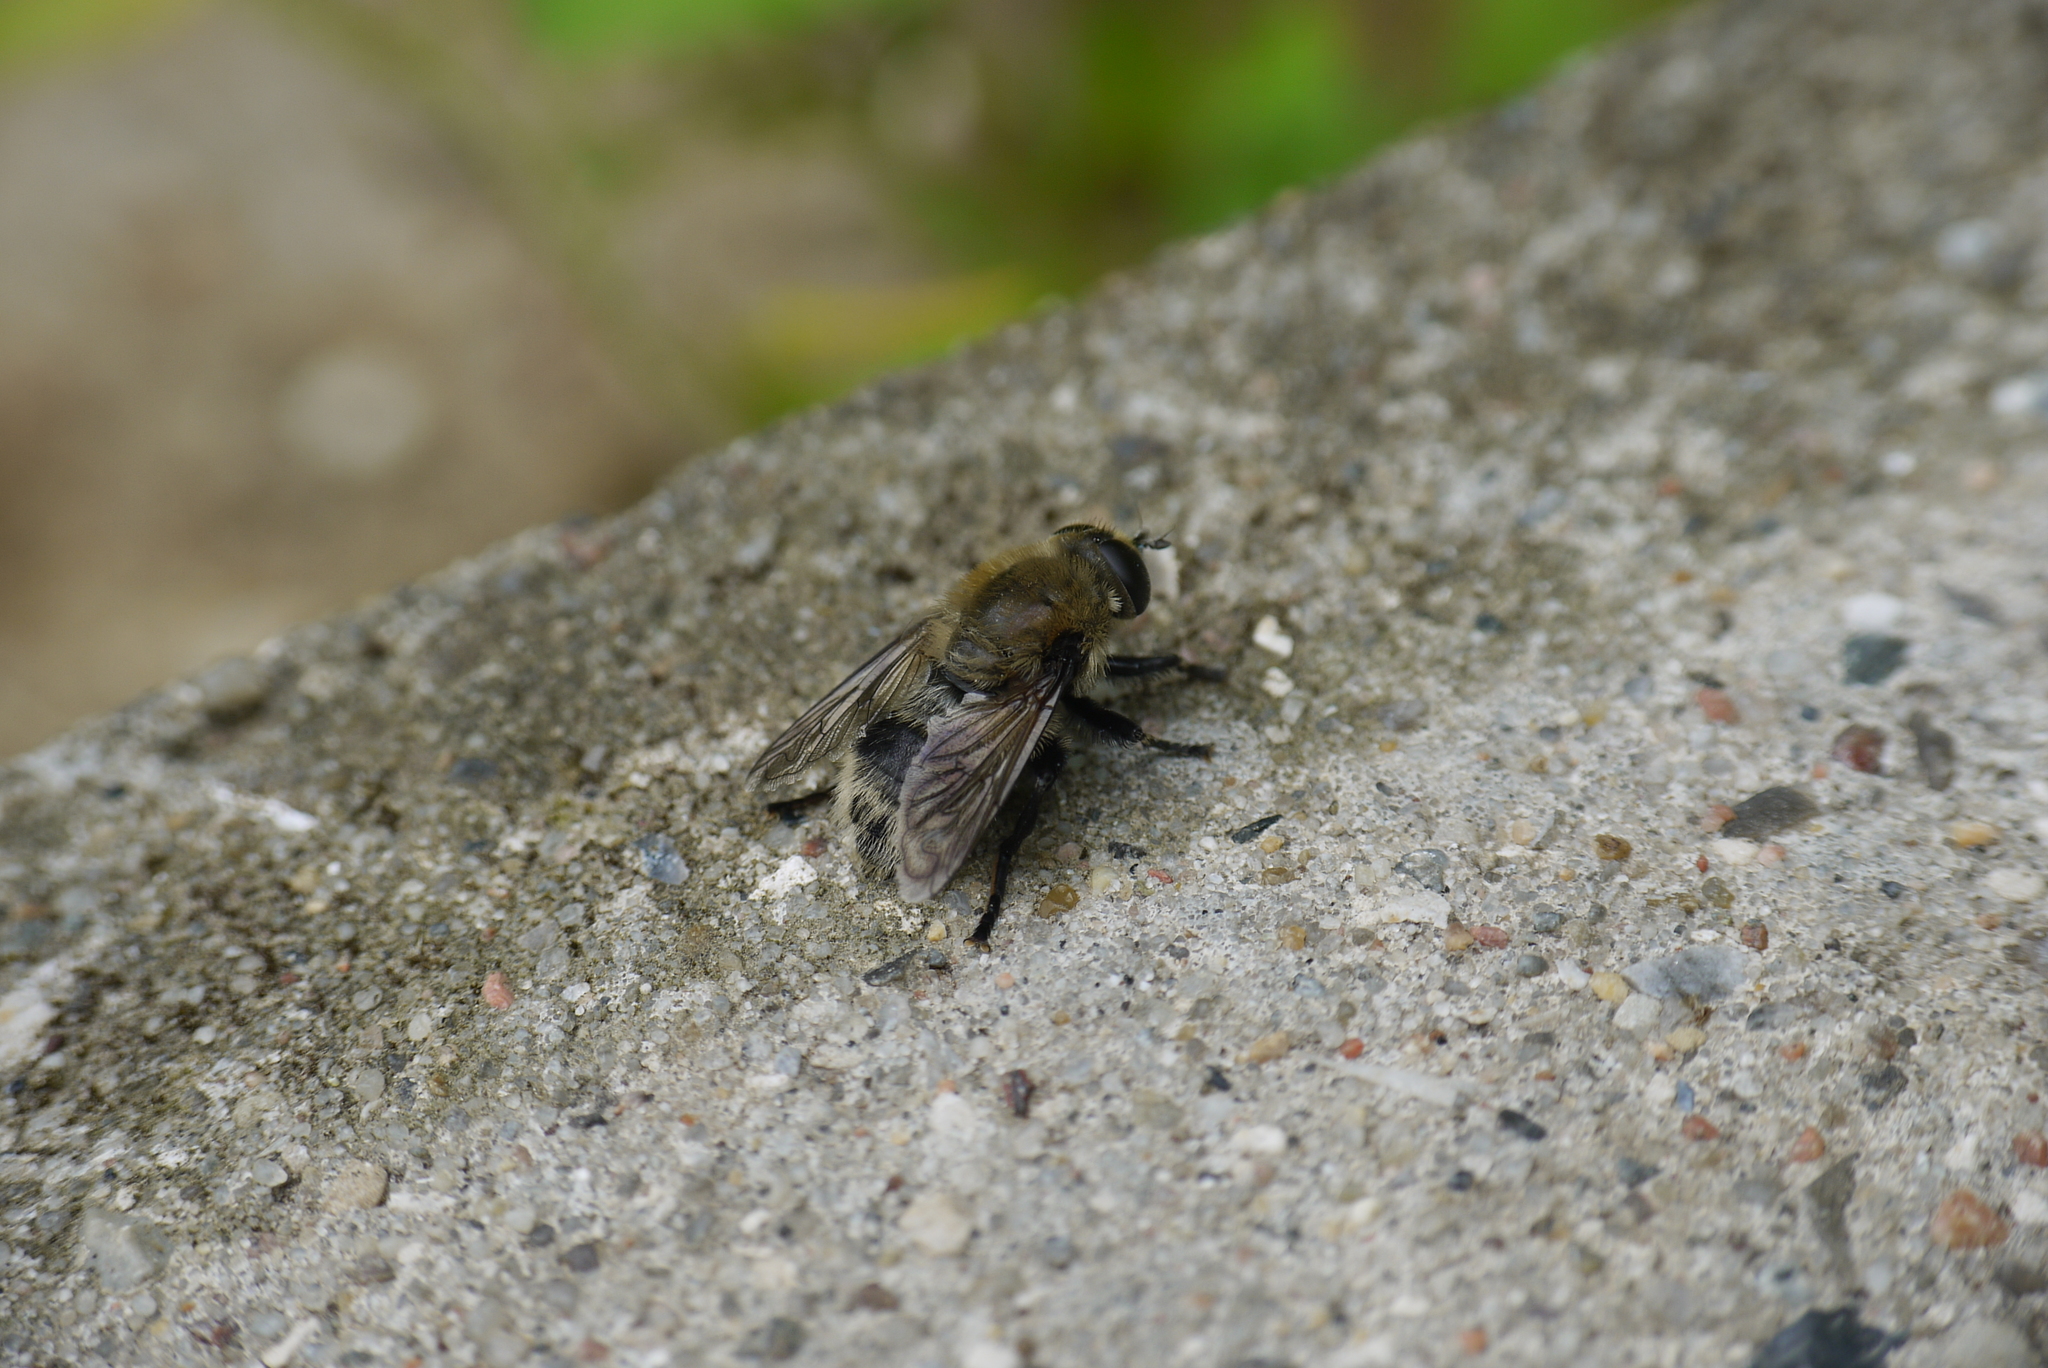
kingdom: Animalia
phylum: Arthropoda
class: Insecta
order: Diptera
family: Syrphidae
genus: Merodon
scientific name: Merodon equestris
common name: Greater bulb-fly
